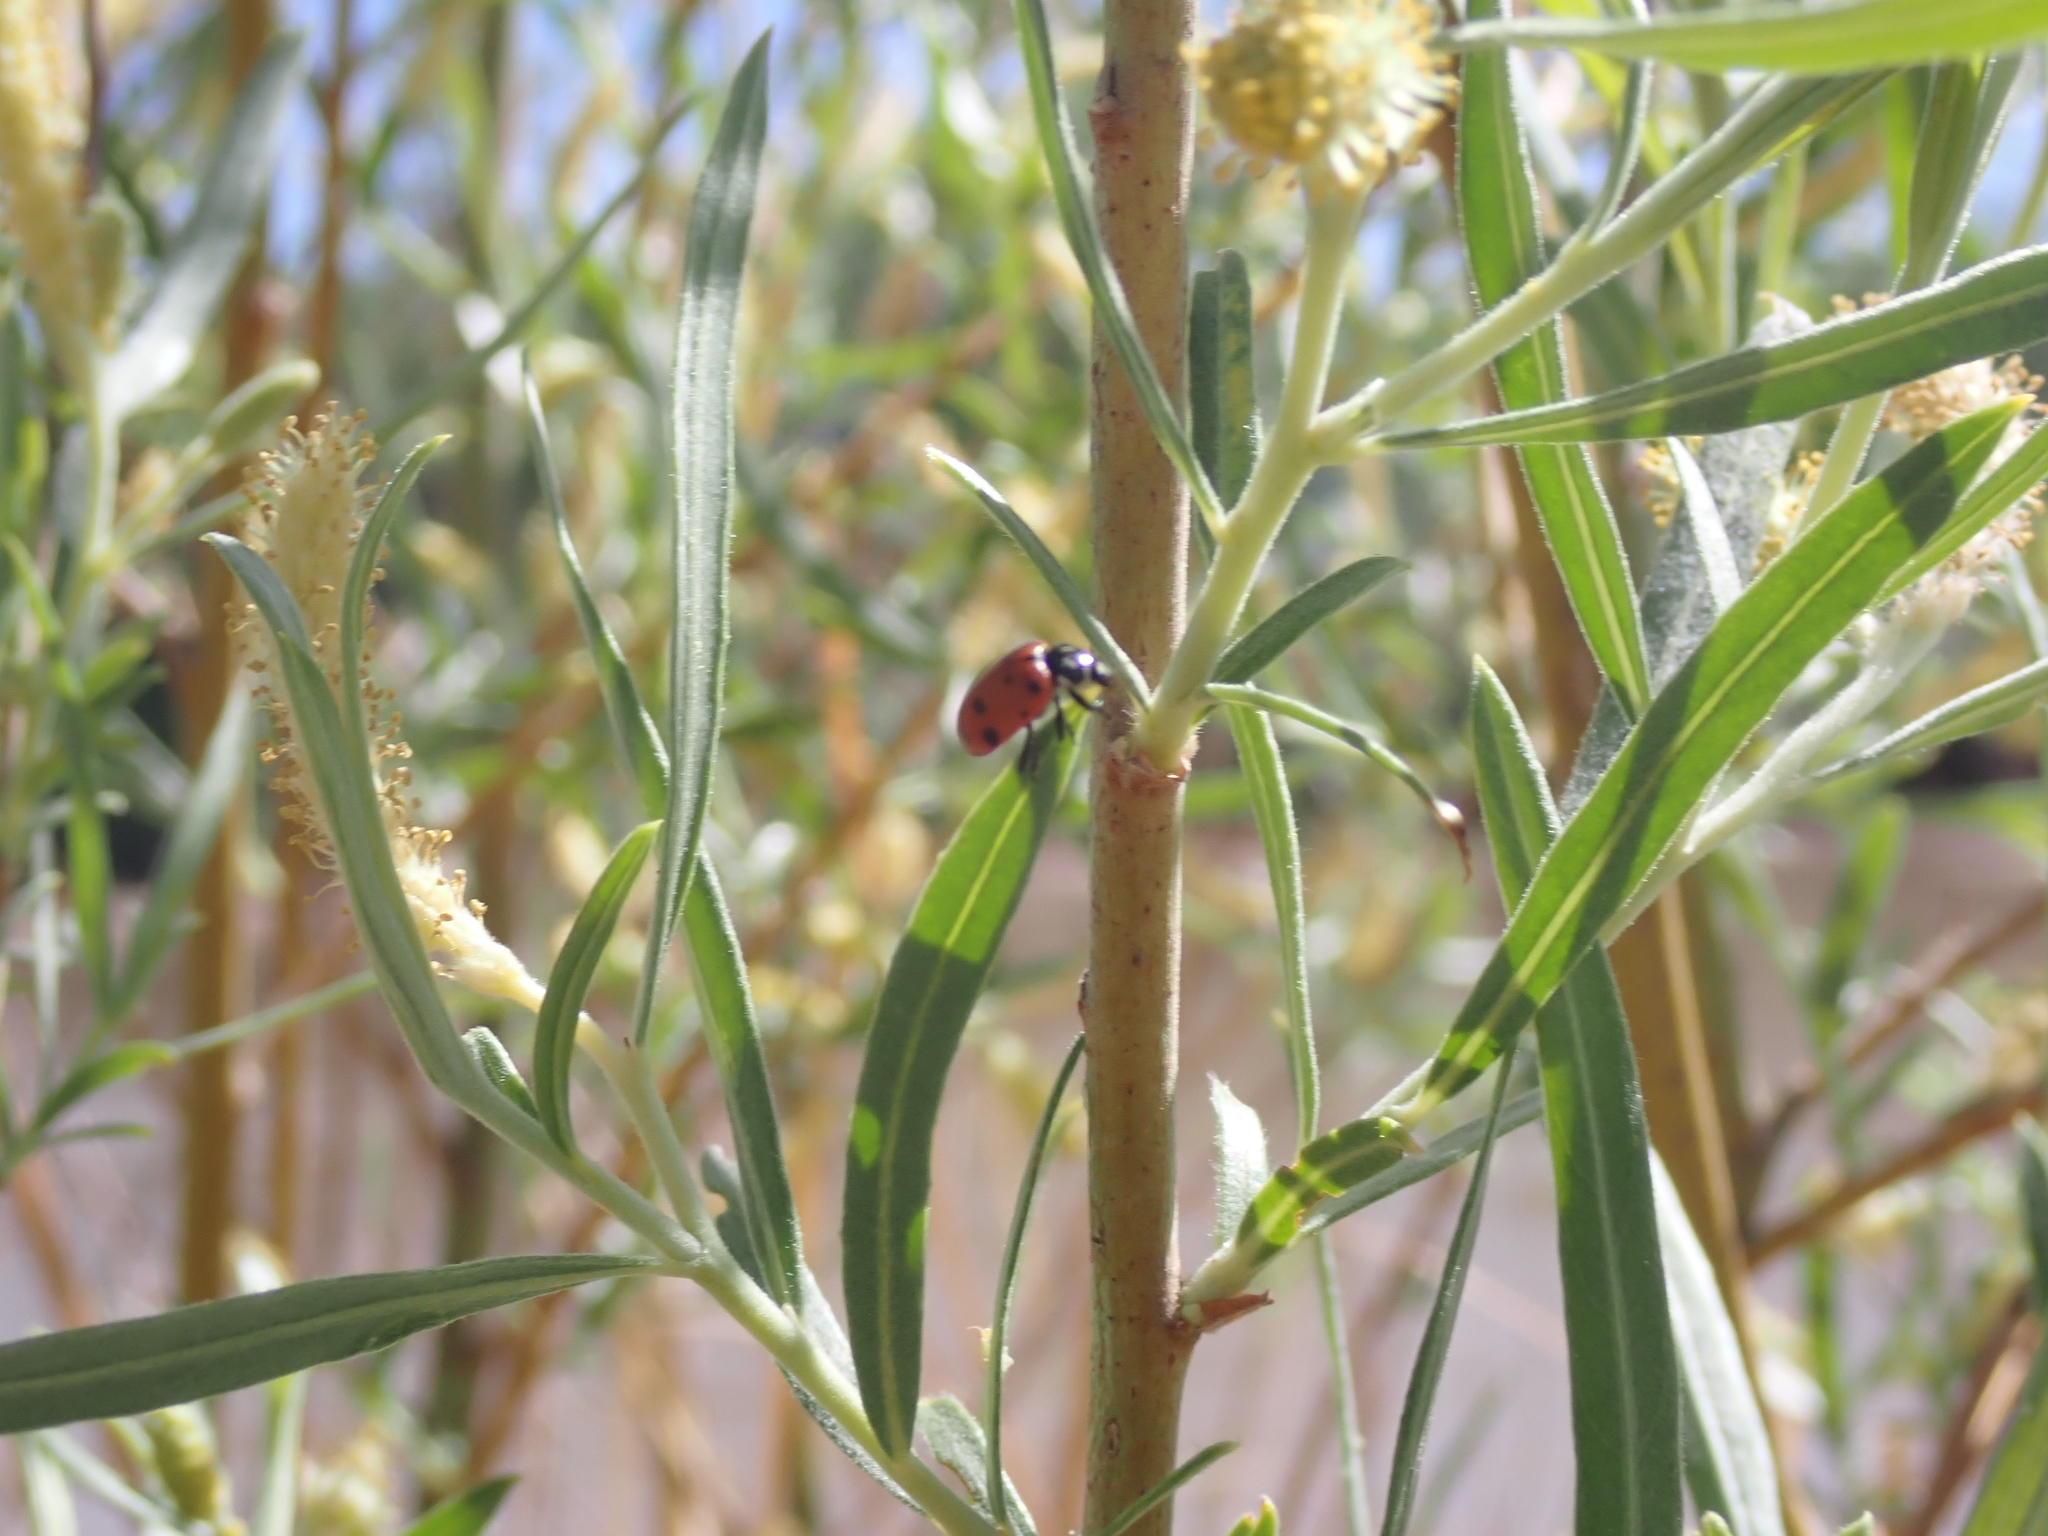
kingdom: Animalia
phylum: Arthropoda
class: Insecta
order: Coleoptera
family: Coccinellidae
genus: Hippodamia
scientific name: Hippodamia convergens
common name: Convergent lady beetle
